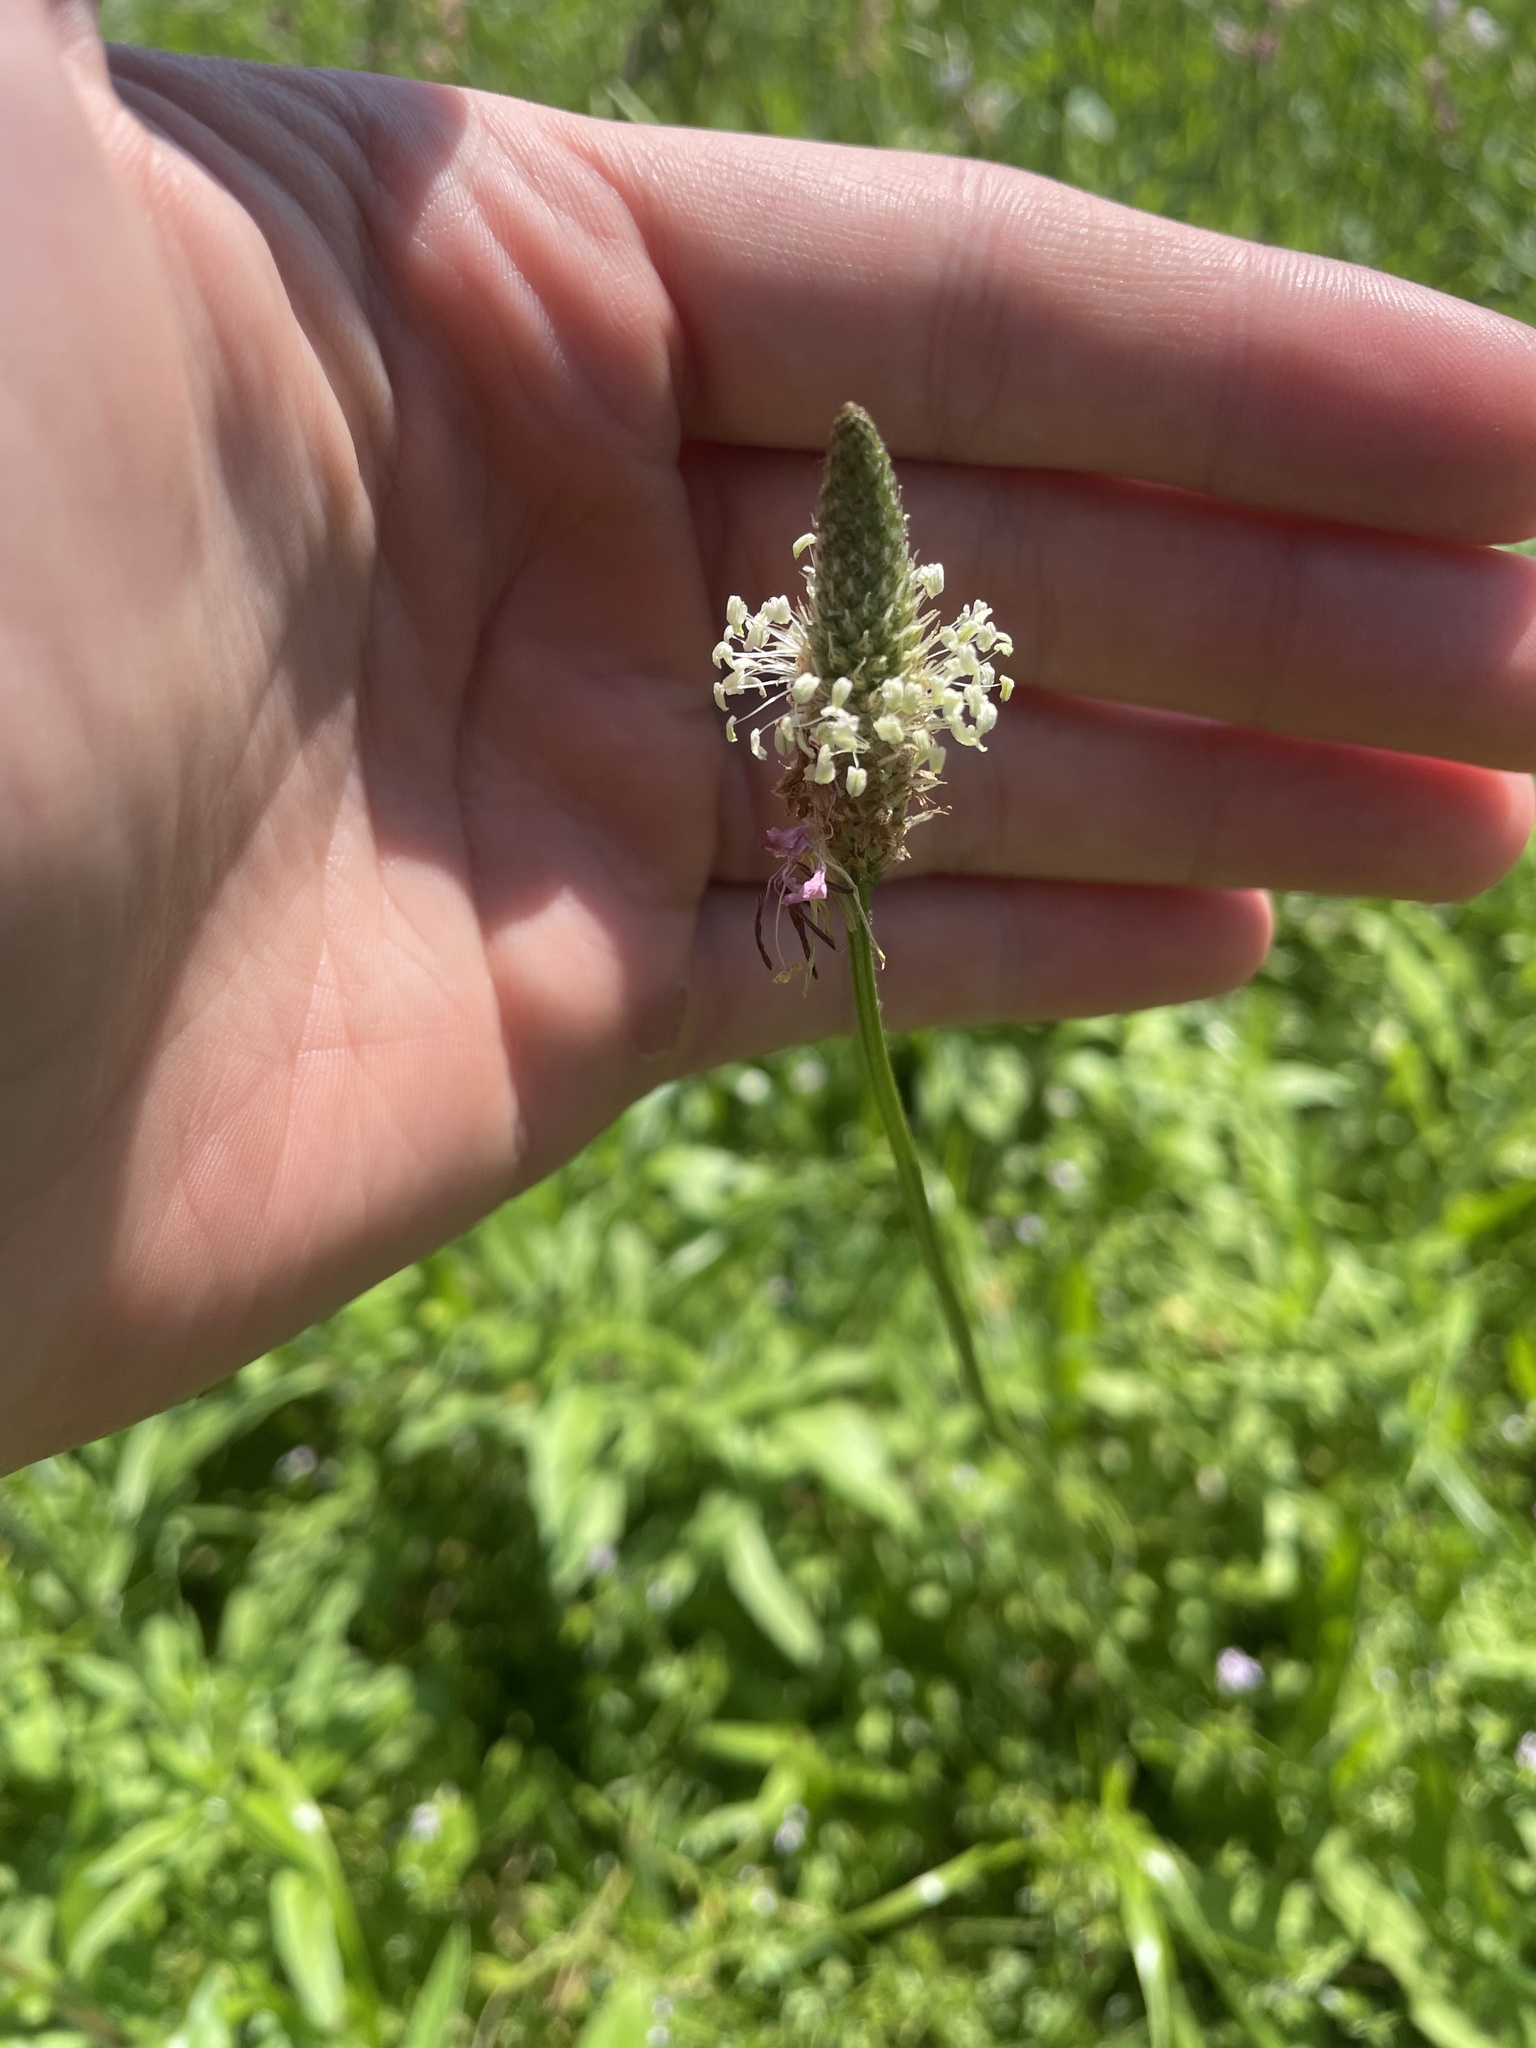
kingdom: Plantae
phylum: Tracheophyta
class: Magnoliopsida
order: Lamiales
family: Plantaginaceae
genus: Plantago
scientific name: Plantago lanceolata
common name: Ribwort plantain
